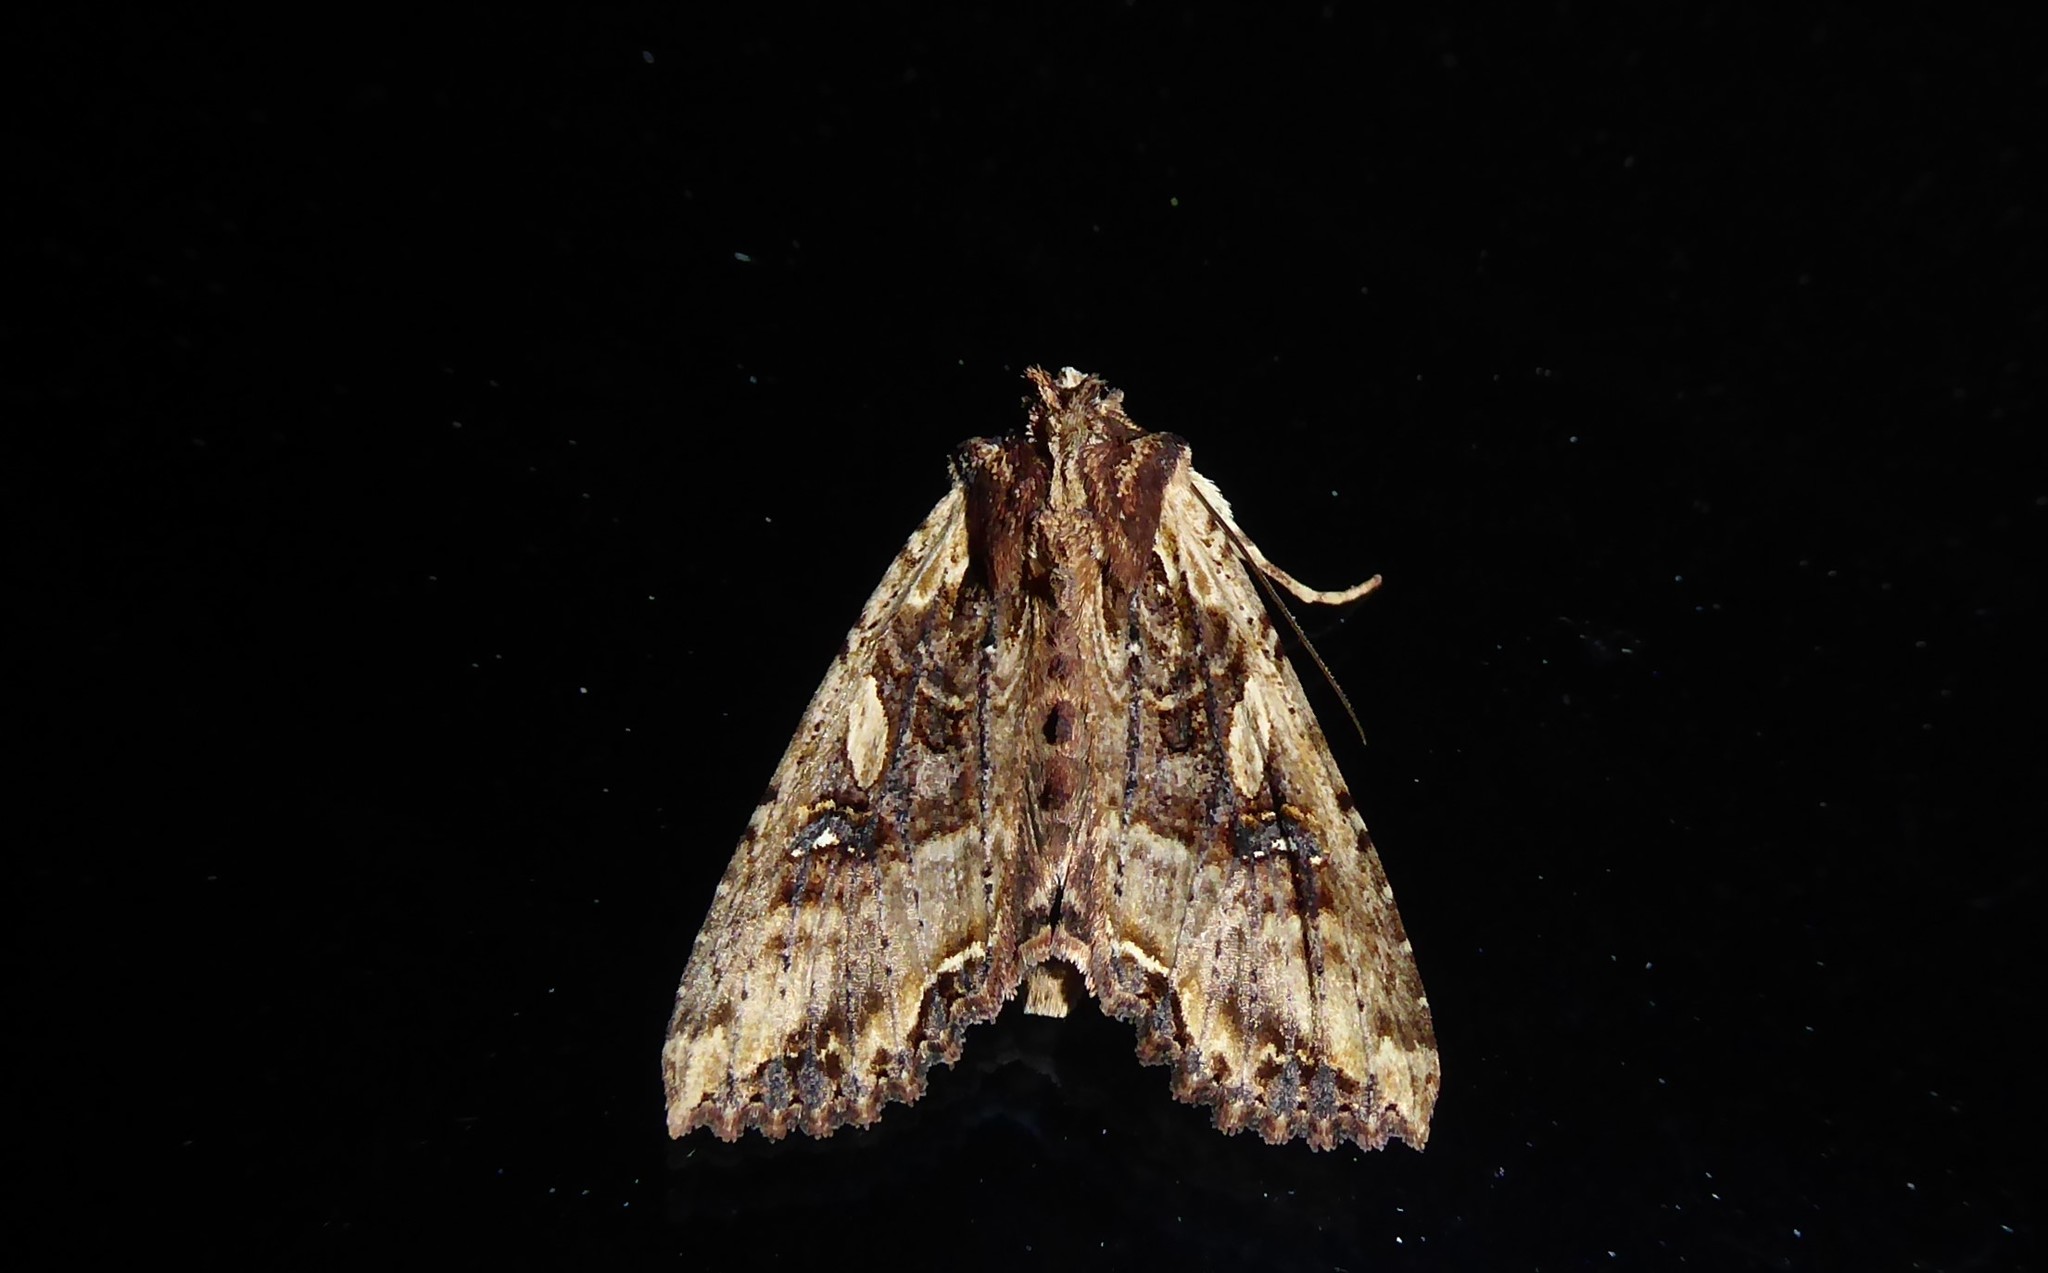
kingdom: Animalia
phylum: Arthropoda
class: Insecta
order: Lepidoptera
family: Noctuidae
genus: Meterana
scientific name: Meterana stipata
